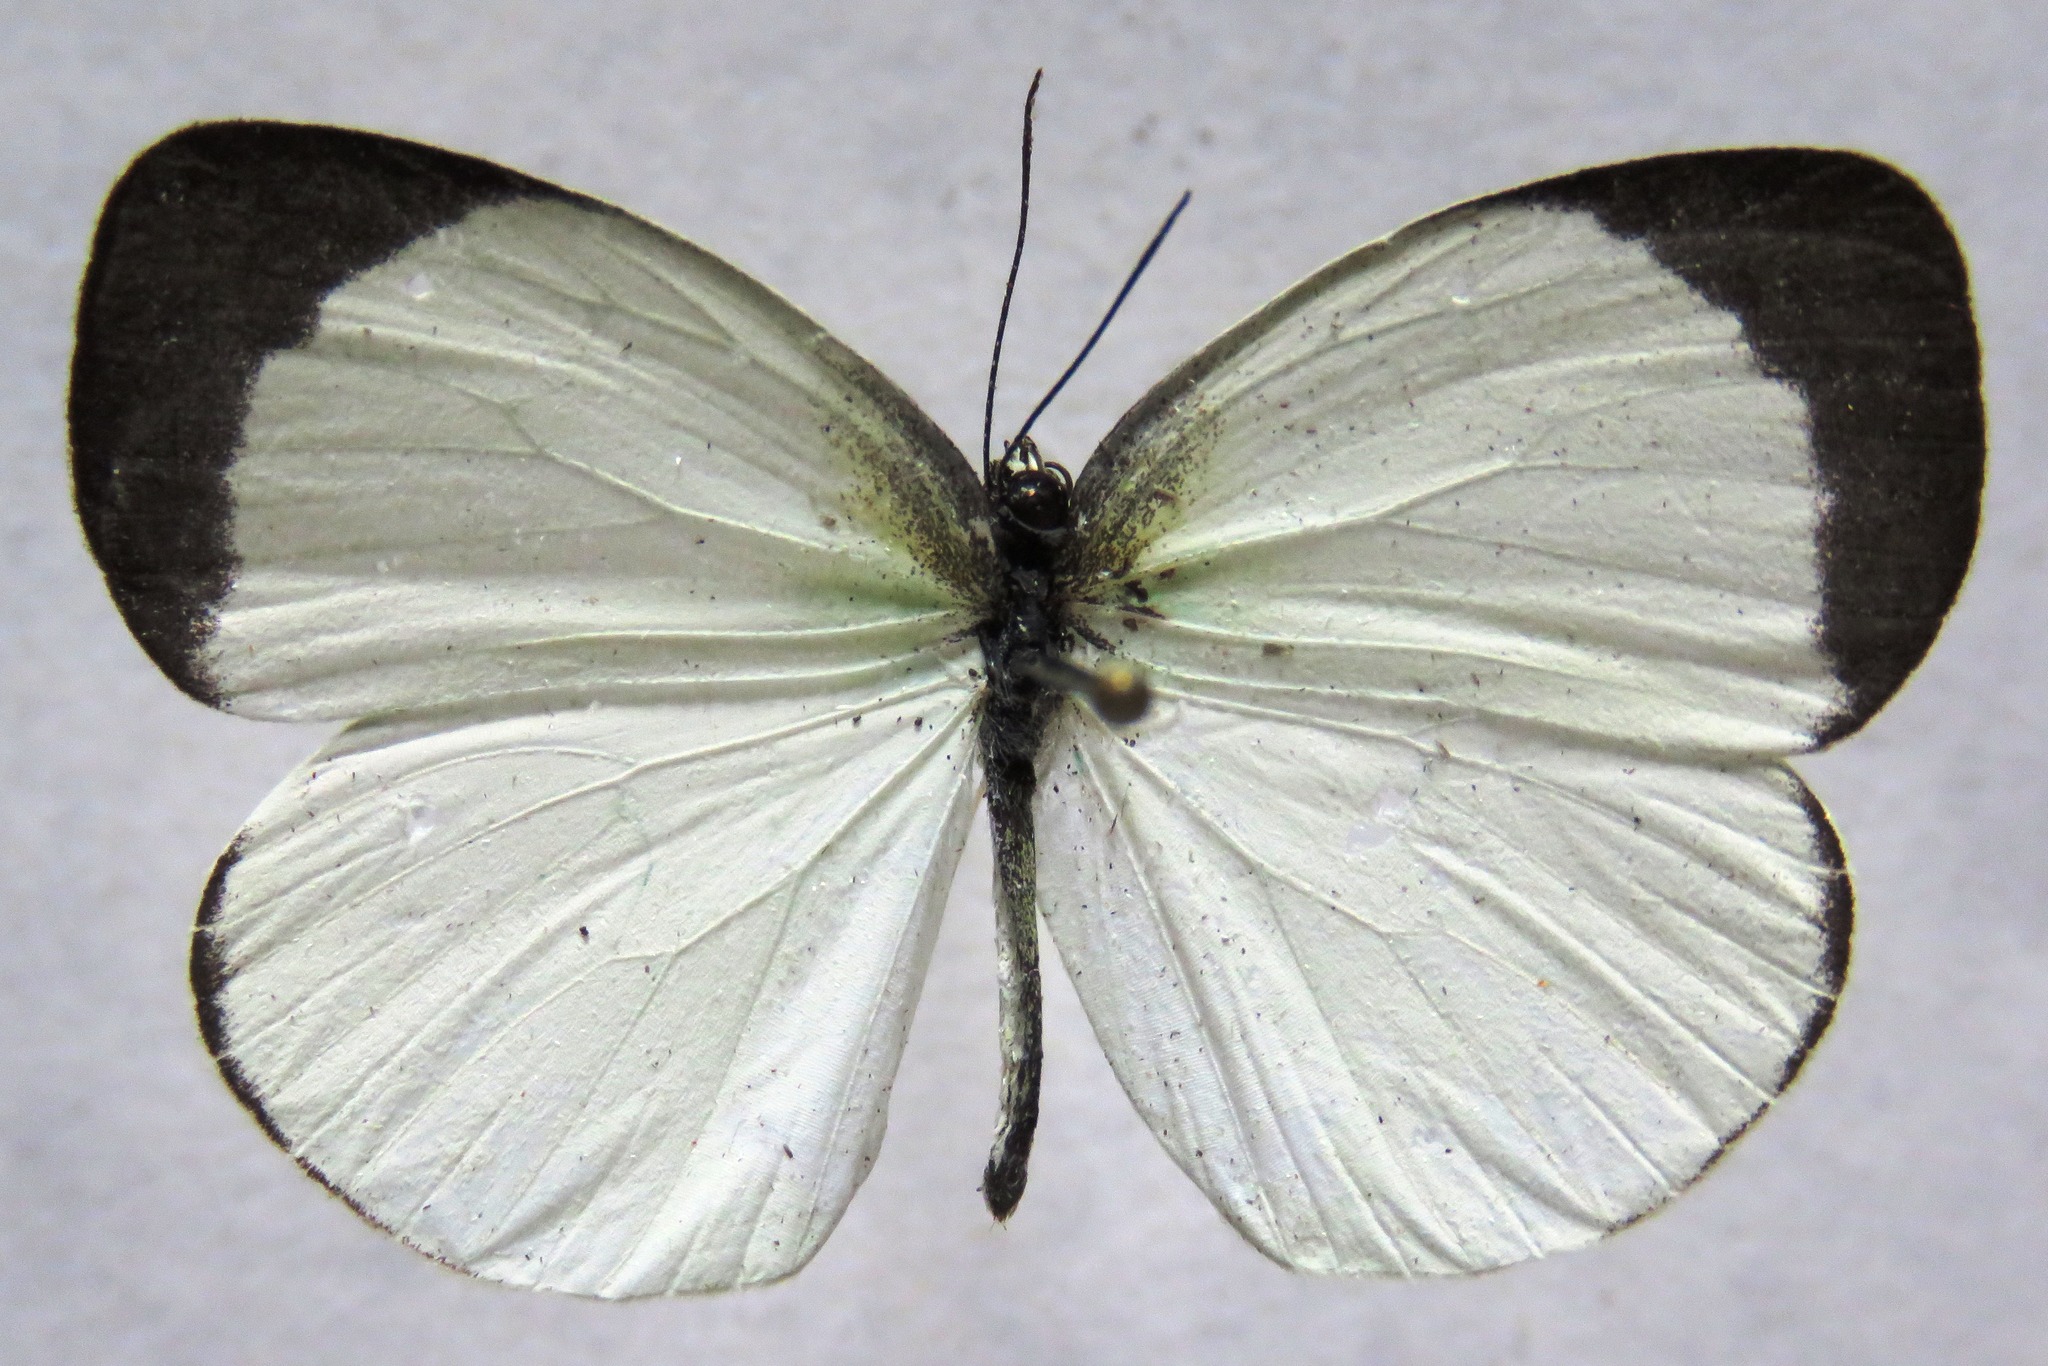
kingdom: Animalia
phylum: Arthropoda
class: Insecta
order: Lepidoptera
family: Pieridae
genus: Abaeis
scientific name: Abaeis albula
